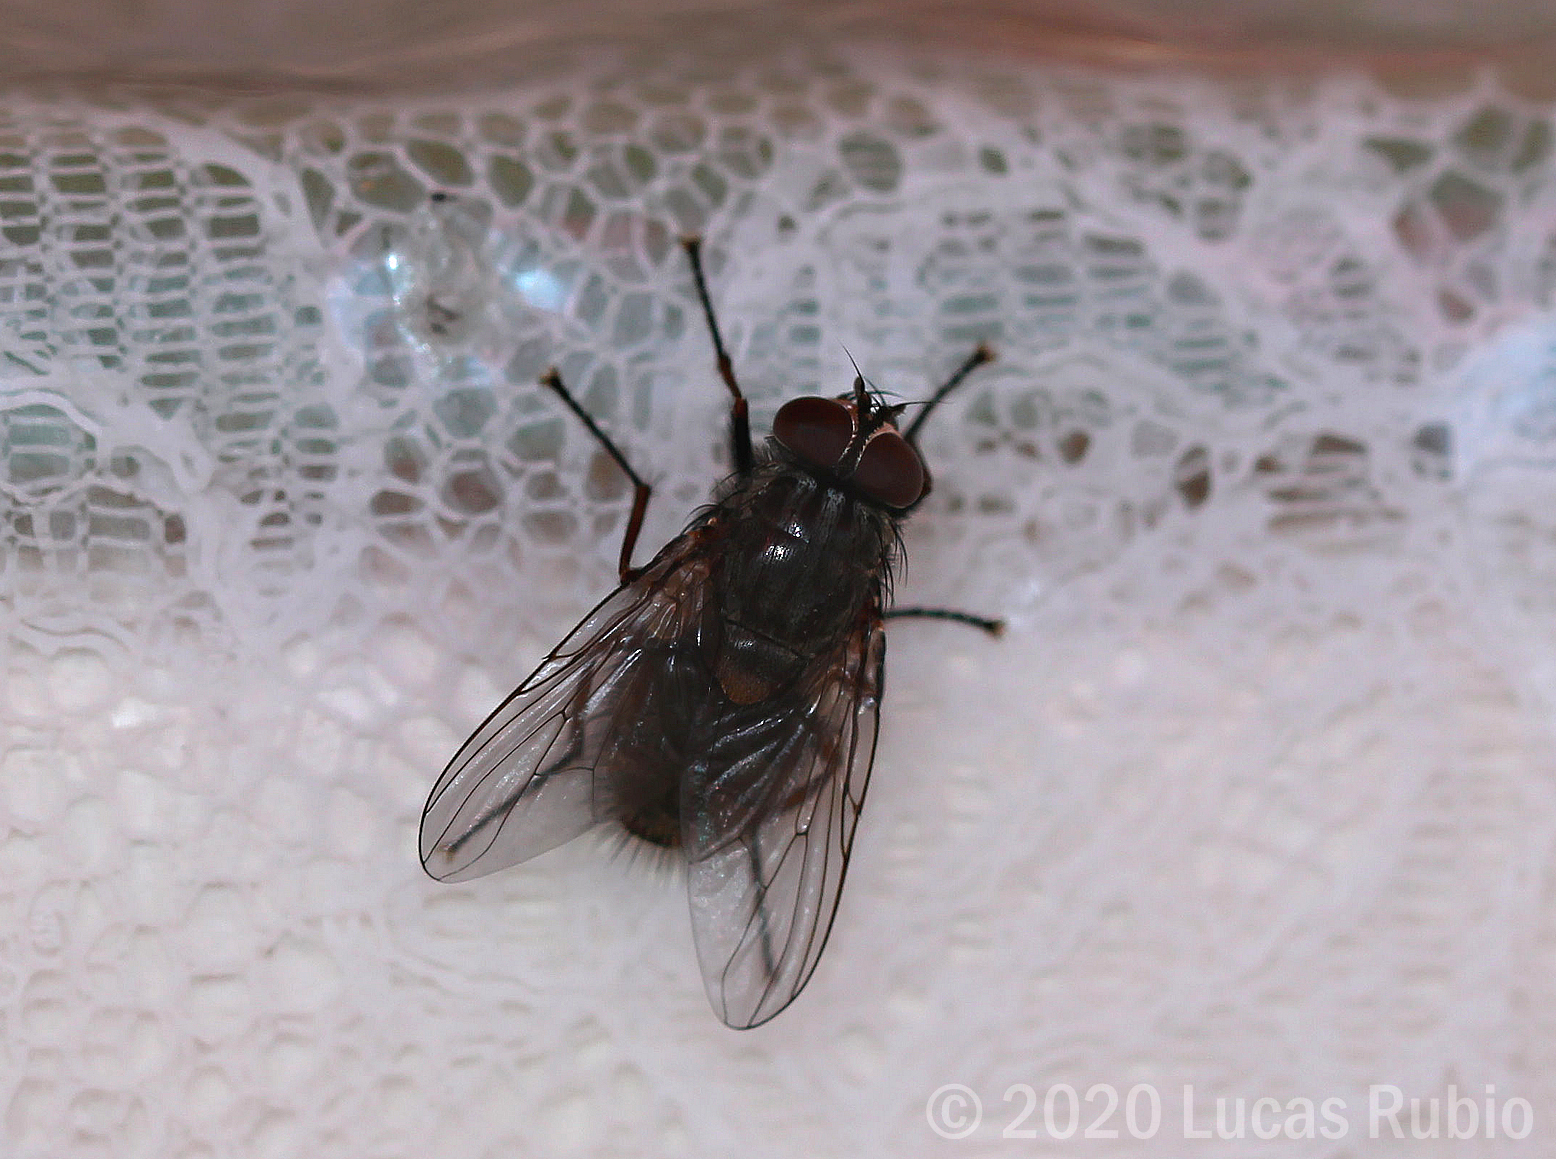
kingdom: Animalia
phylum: Arthropoda
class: Insecta
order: Diptera
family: Muscidae
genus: Muscina
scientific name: Muscina stabulans
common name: False stable fly
